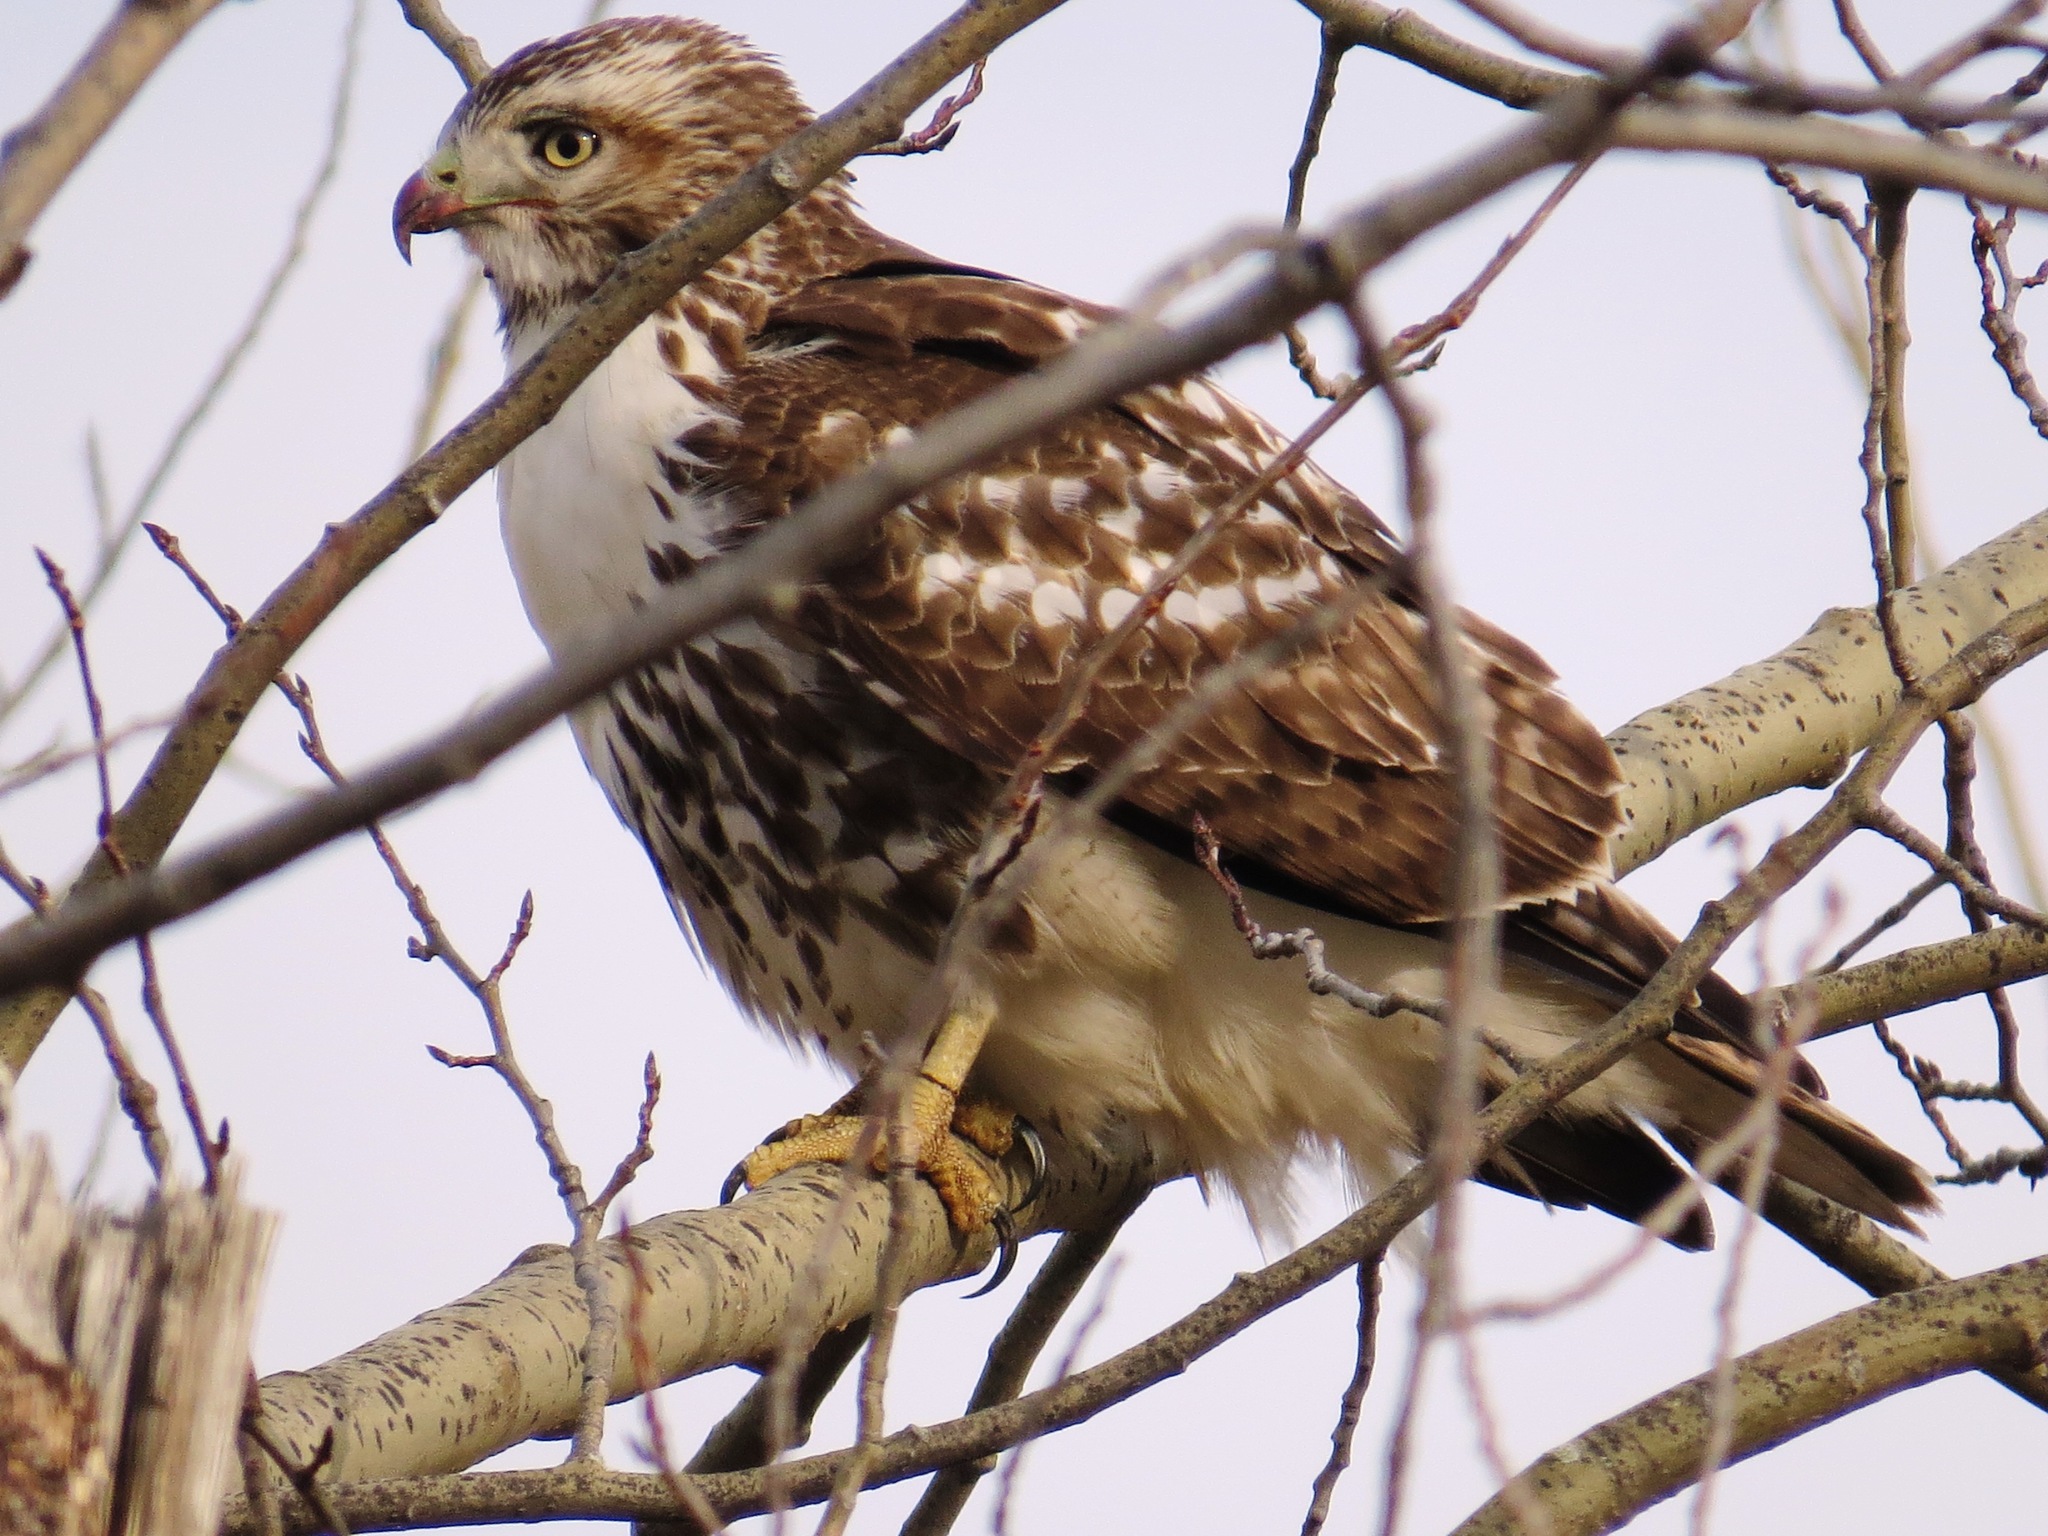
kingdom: Animalia
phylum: Chordata
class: Aves
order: Accipitriformes
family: Accipitridae
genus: Buteo
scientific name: Buteo jamaicensis
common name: Red-tailed hawk
